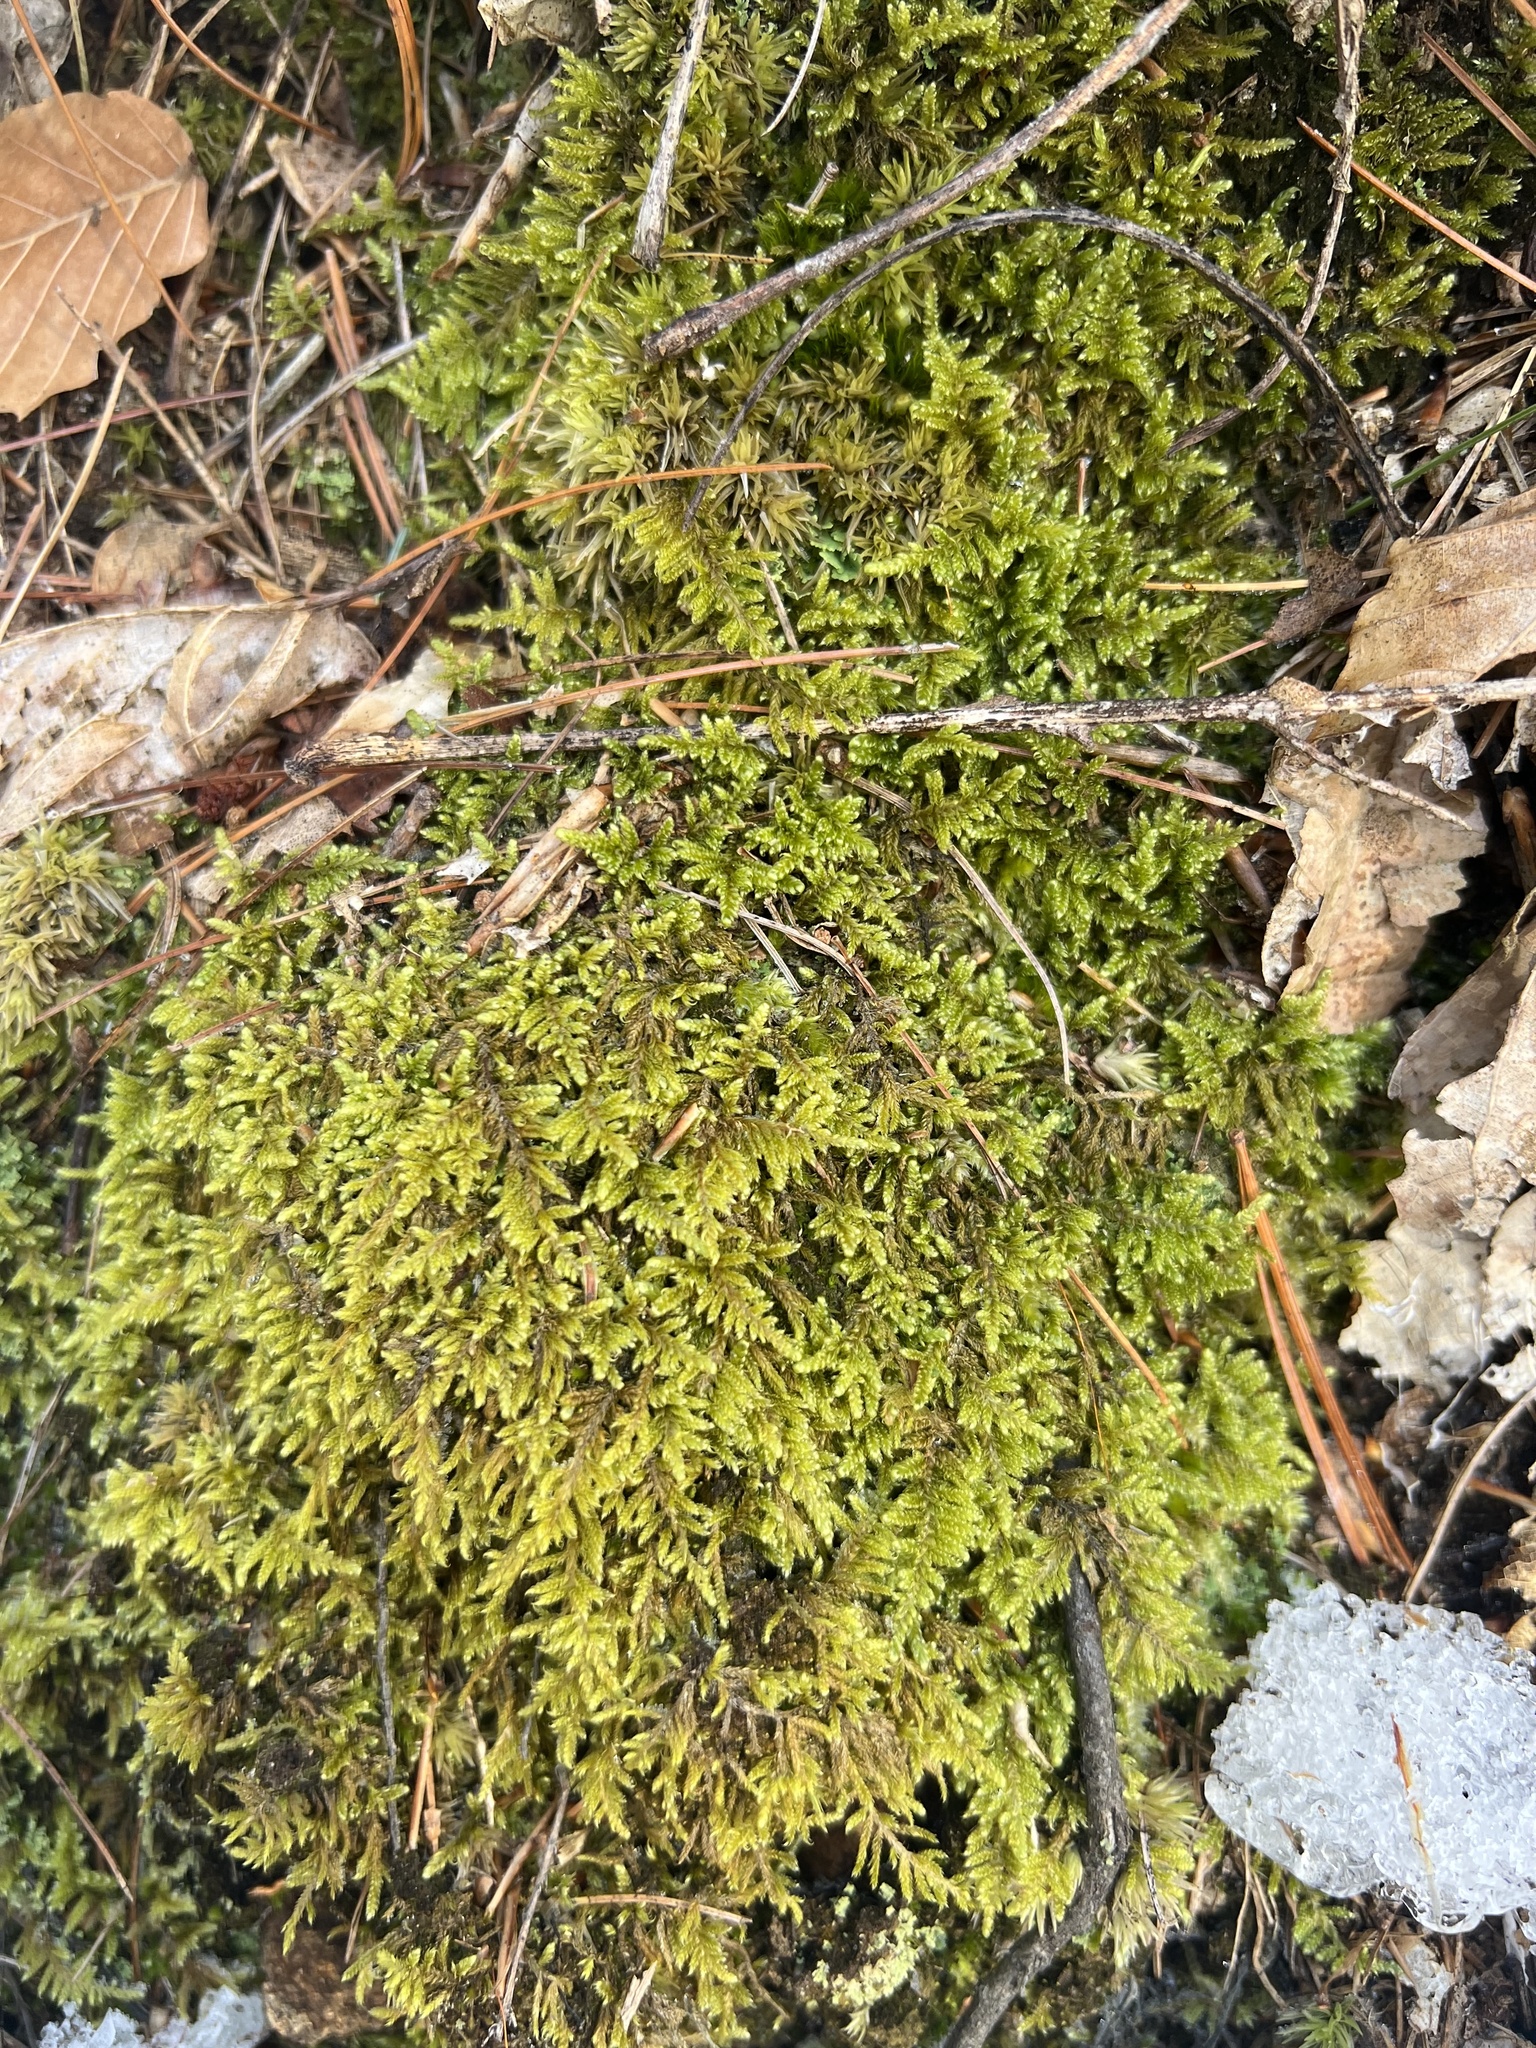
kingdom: Plantae
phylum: Bryophyta
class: Bryopsida
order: Hypnales
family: Callicladiaceae
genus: Callicladium
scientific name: Callicladium imponens
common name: Brocade moss
